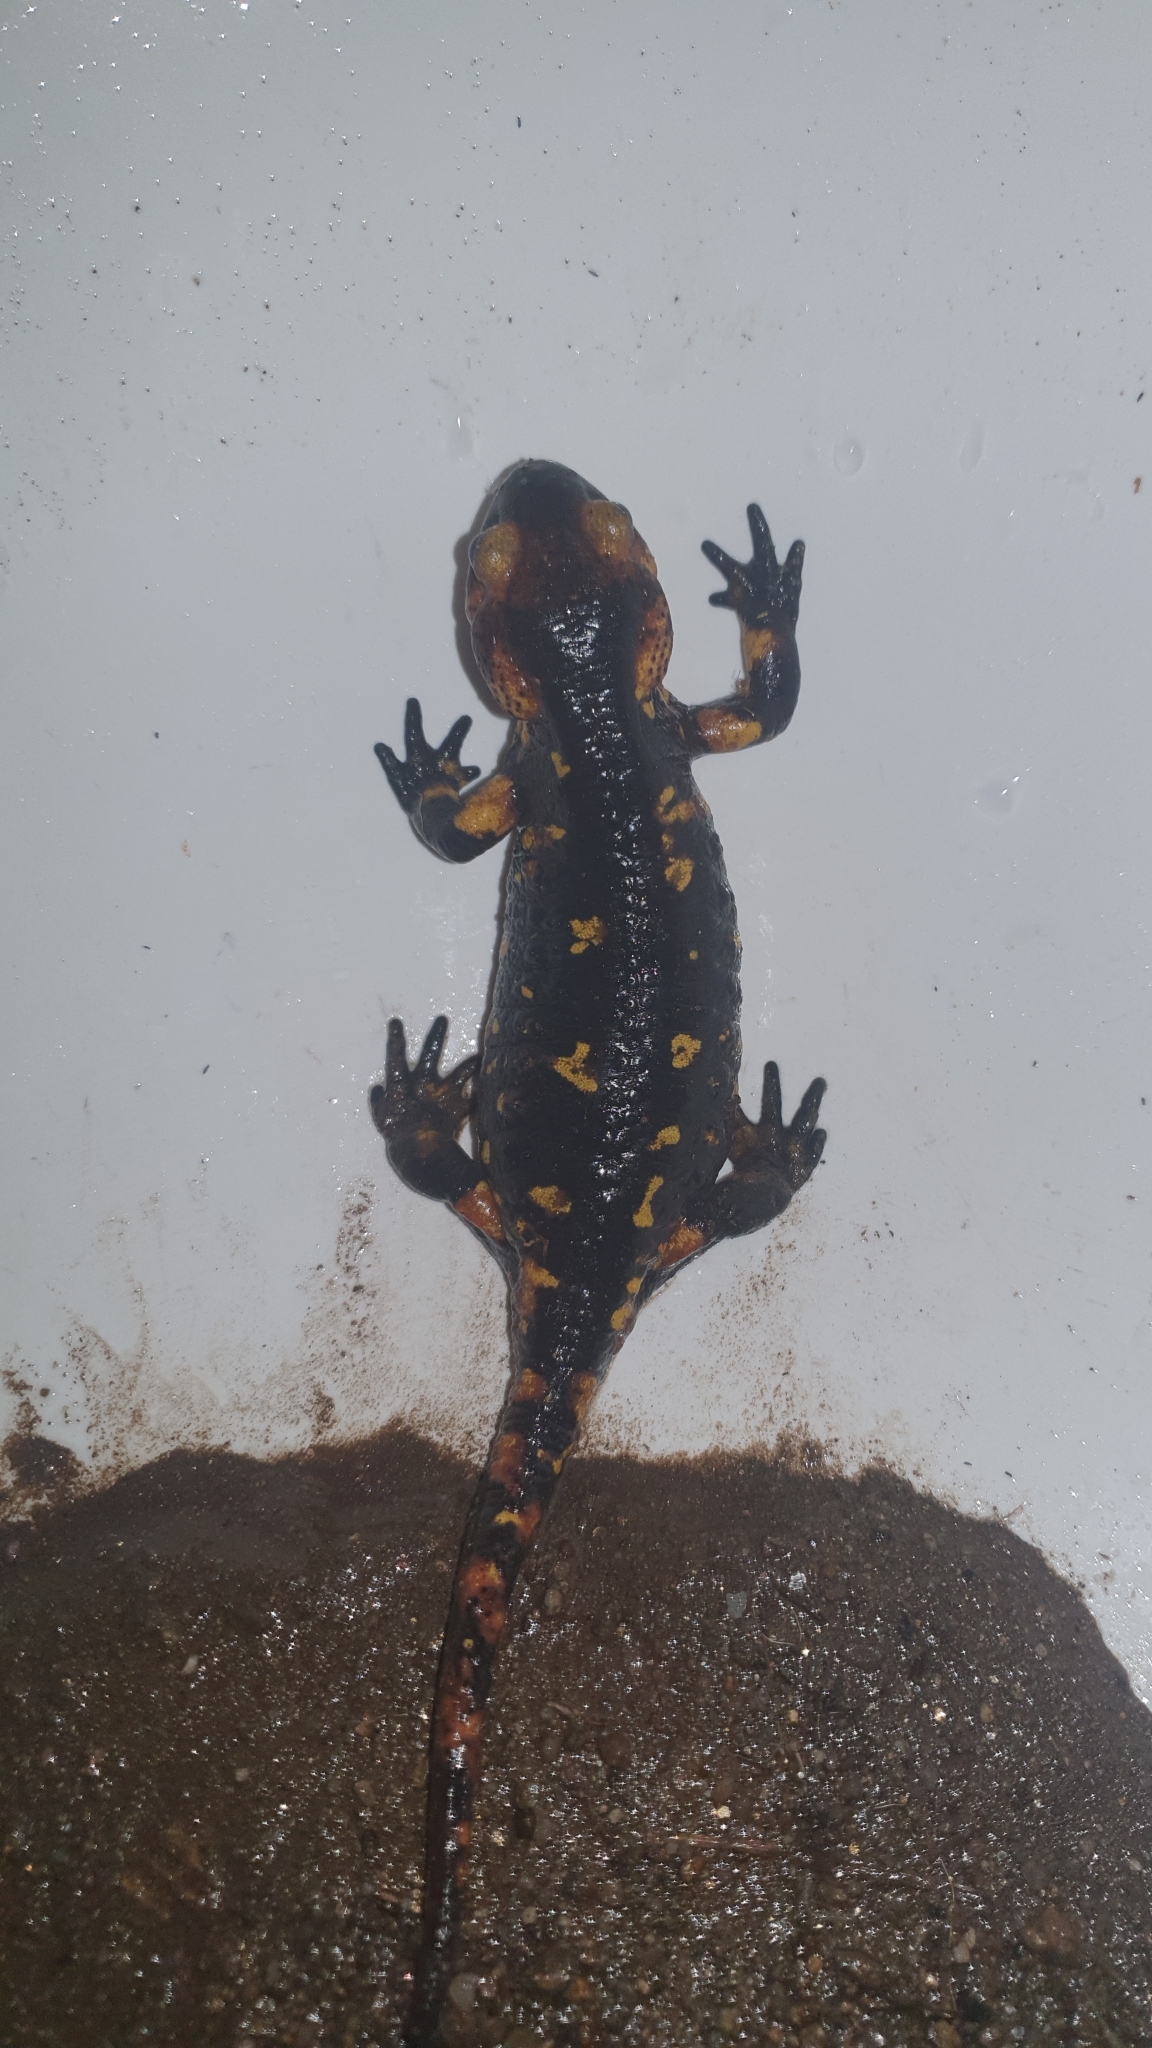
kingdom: Animalia
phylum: Chordata
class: Amphibia
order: Caudata
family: Salamandridae
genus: Salamandra
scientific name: Salamandra salamandra
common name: Fire salamander
